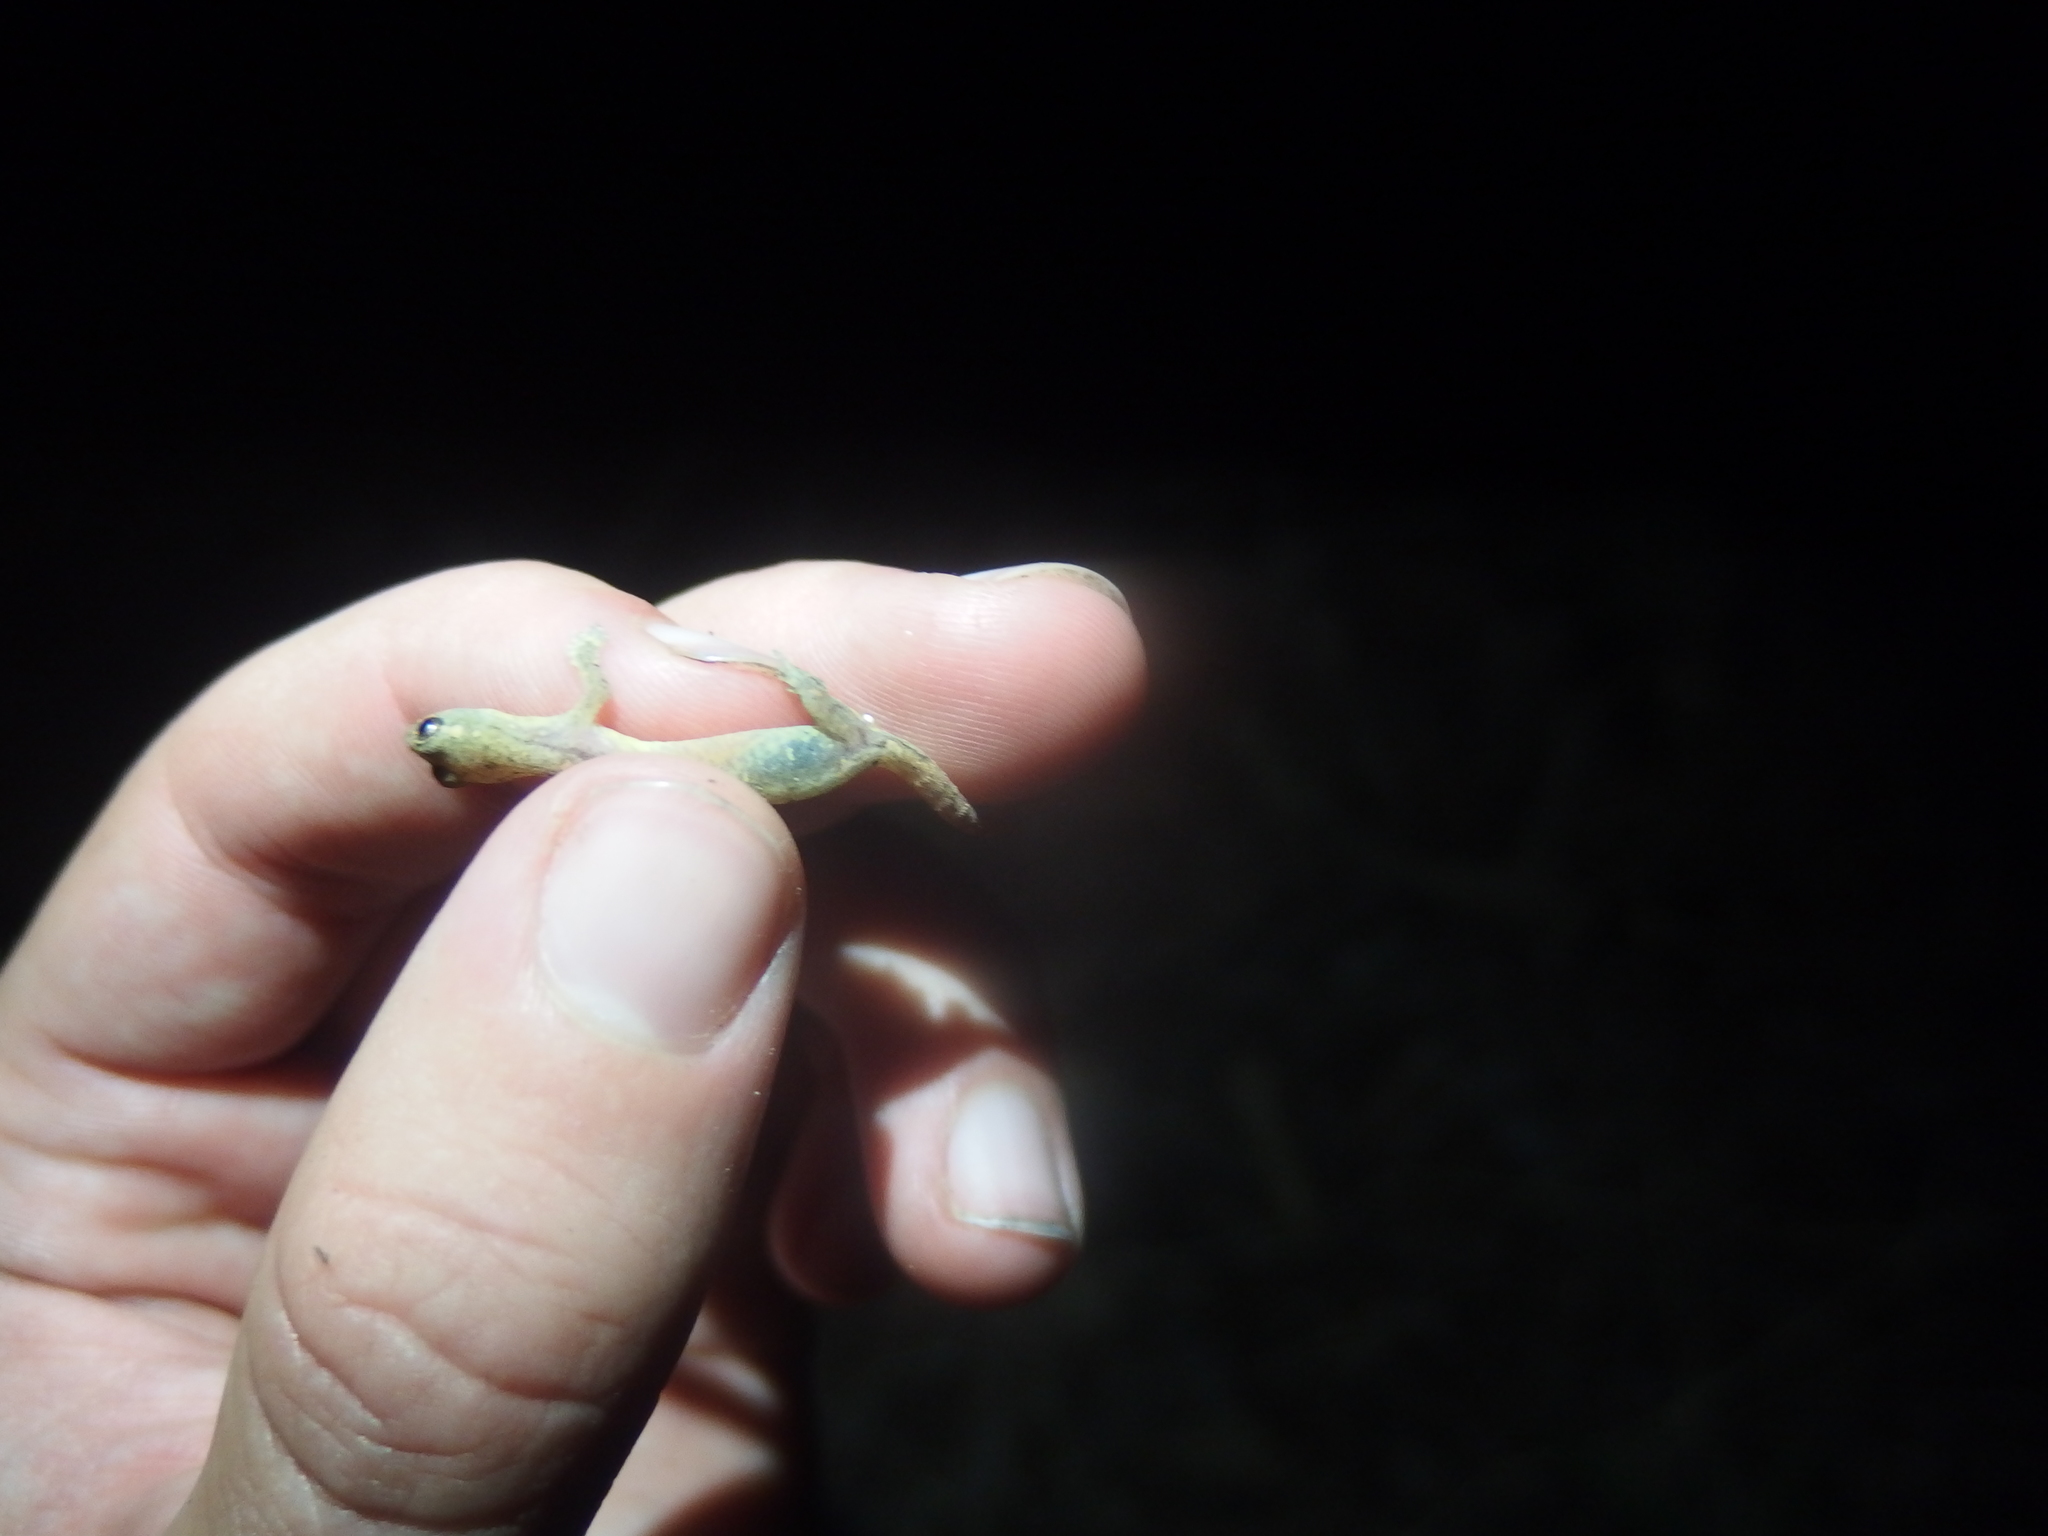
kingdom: Animalia
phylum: Chordata
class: Squamata
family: Gekkonidae
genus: Hemiphyllodactylus
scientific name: Hemiphyllodactylus typus
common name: Common dwarf gecko
